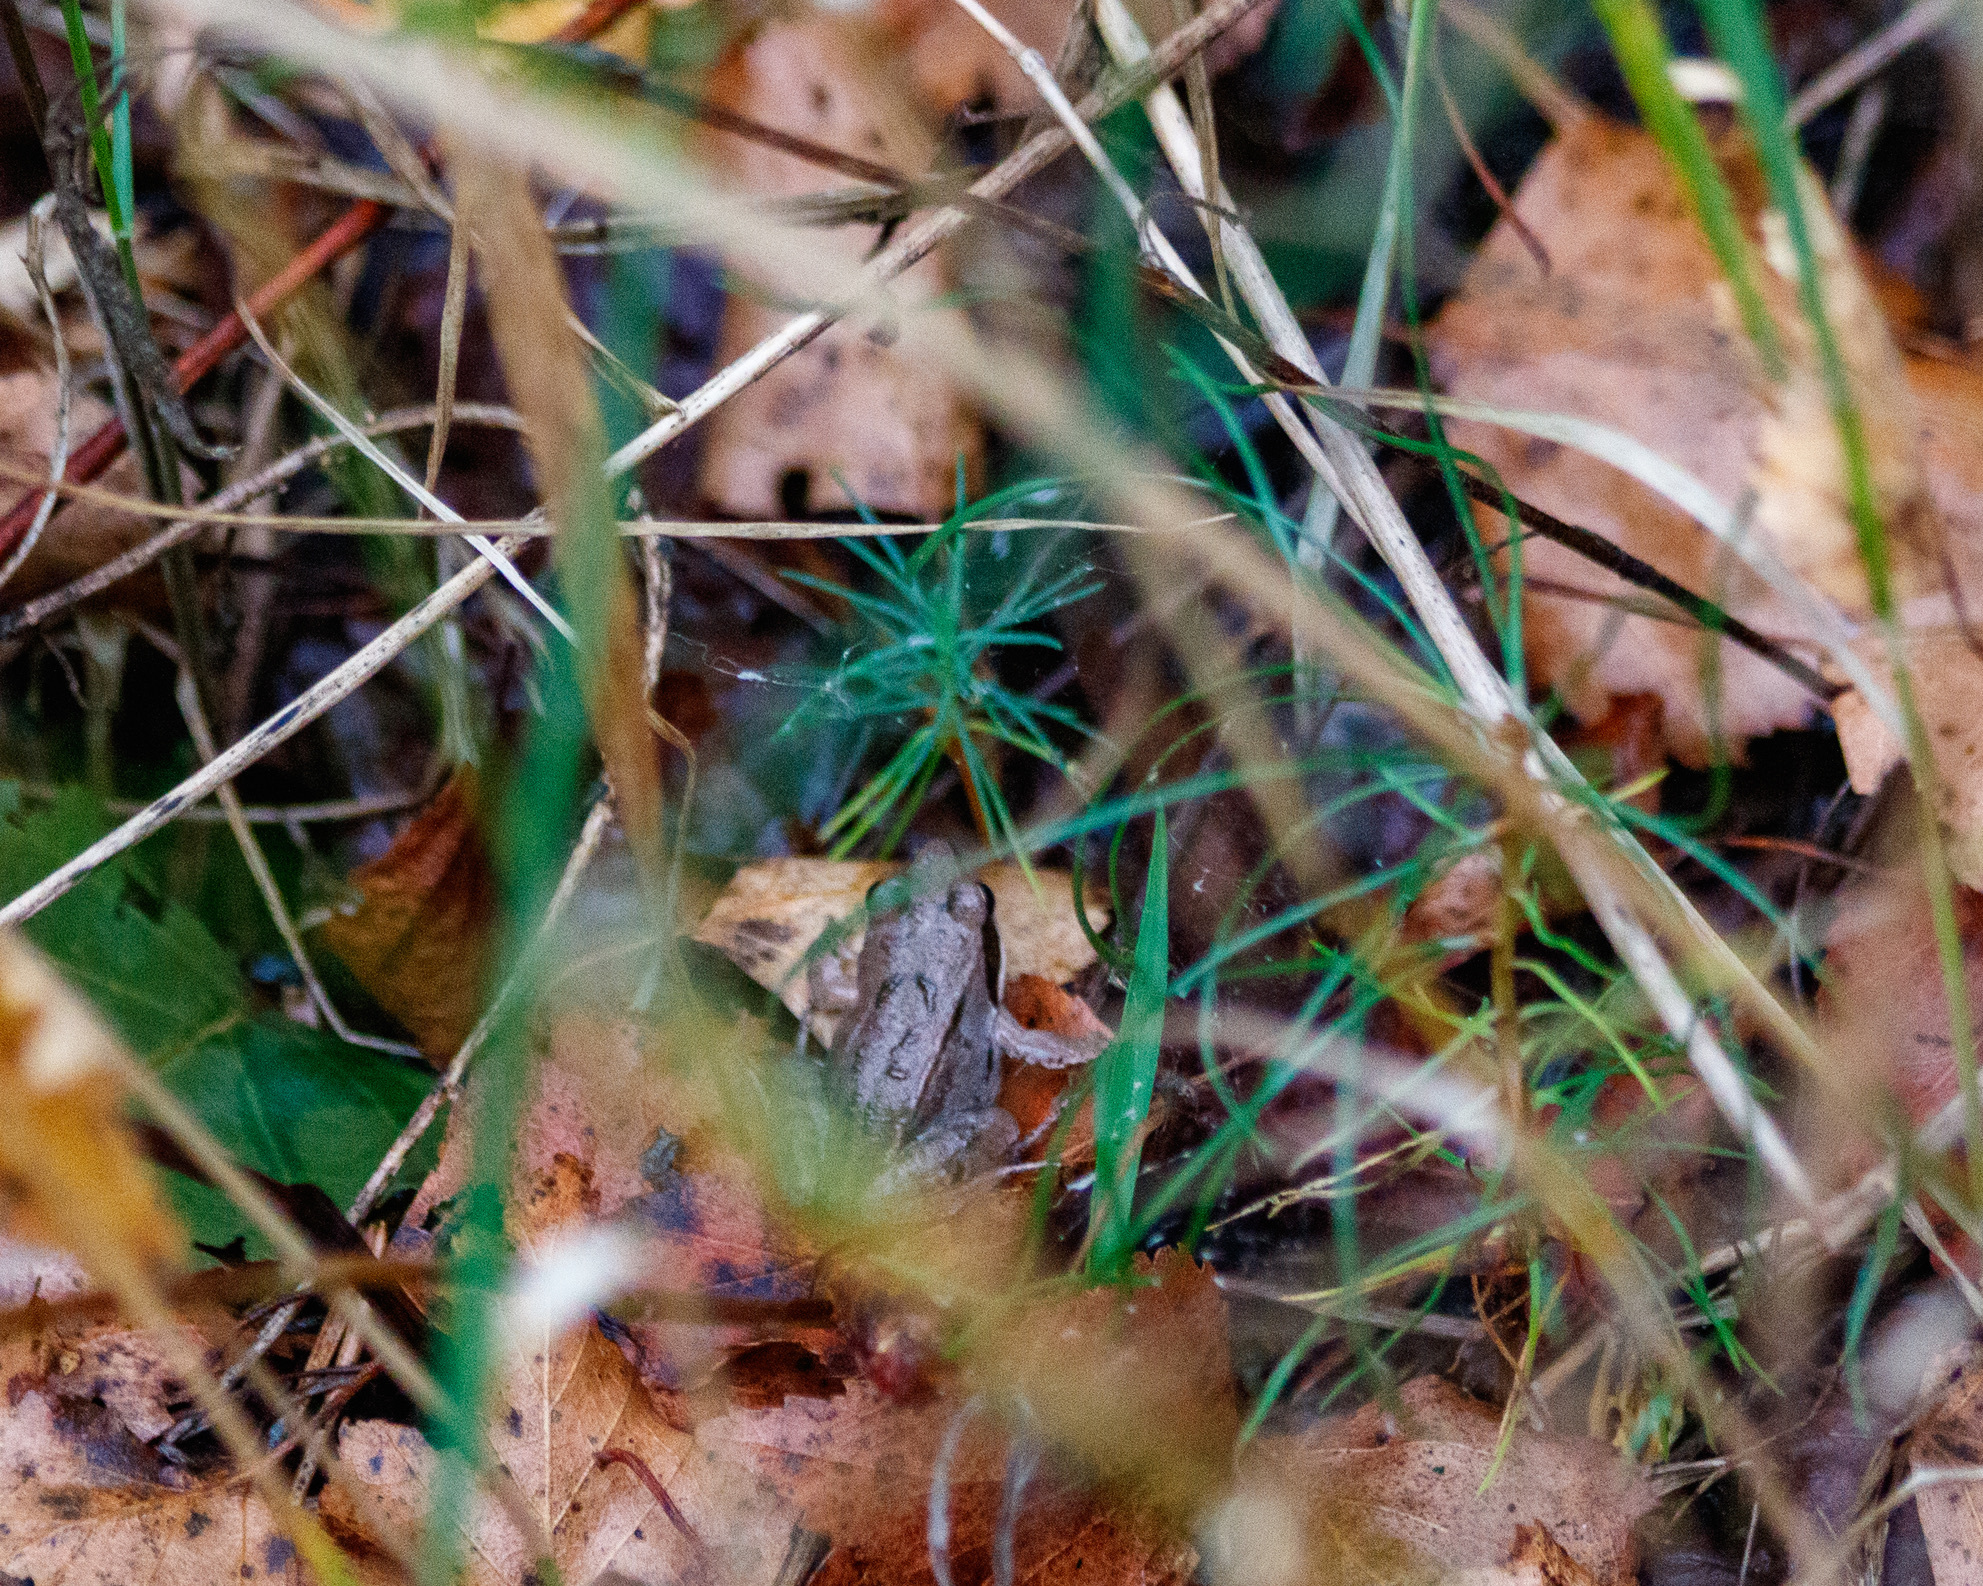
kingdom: Animalia
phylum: Chordata
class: Amphibia
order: Anura
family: Ranidae
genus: Rana
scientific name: Rana arvalis
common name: Moor frog
